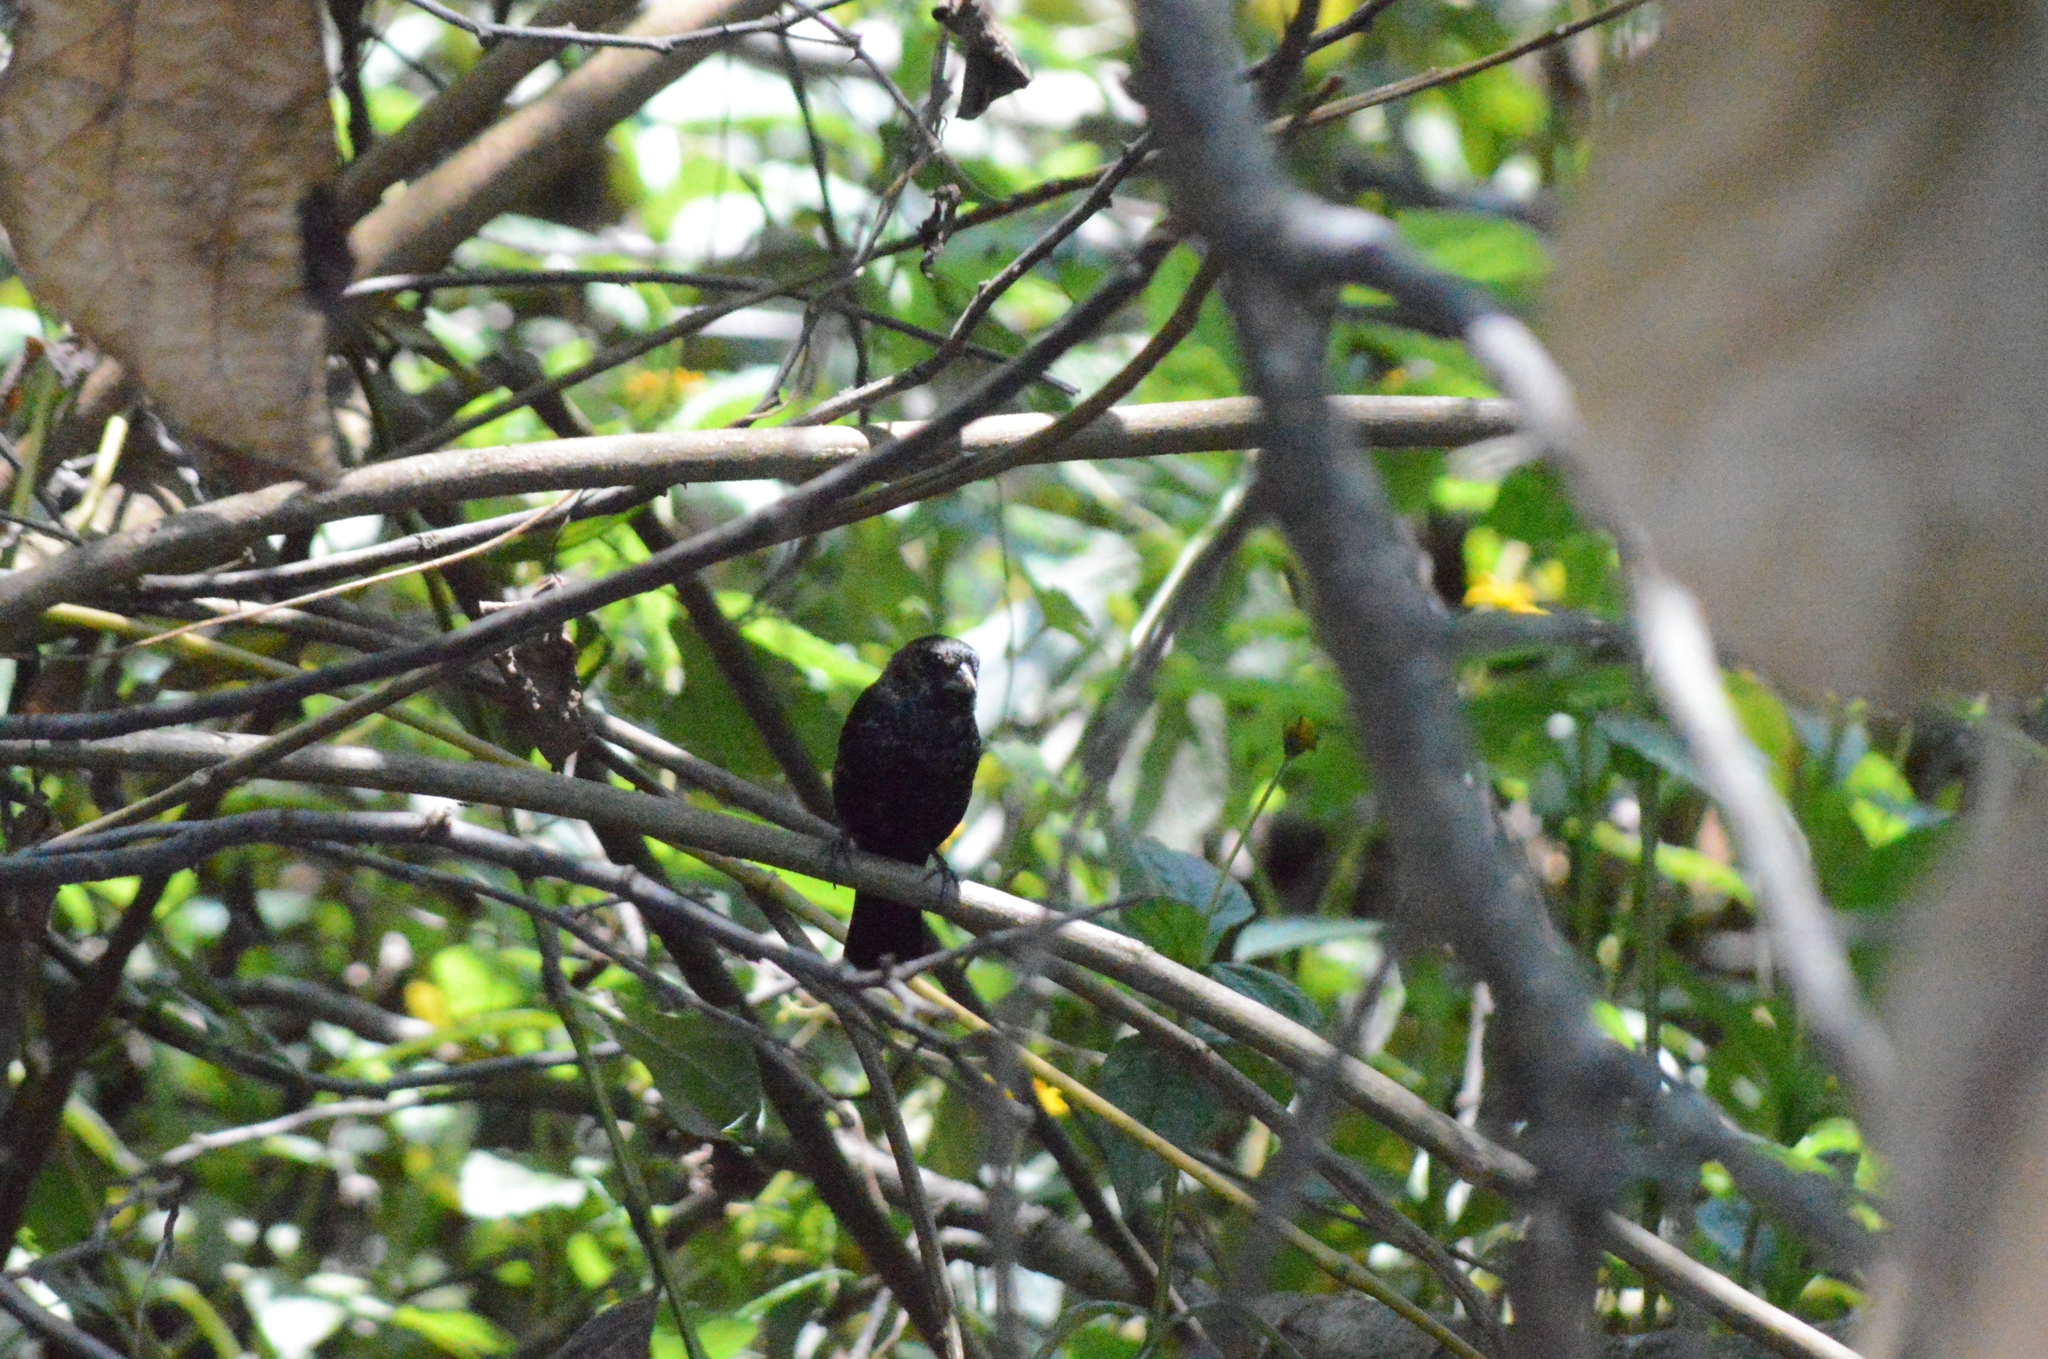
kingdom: Animalia
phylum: Chordata
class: Aves
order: Passeriformes
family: Thraupidae
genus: Volatinia
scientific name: Volatinia jacarina
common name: Blue-black grassquit
